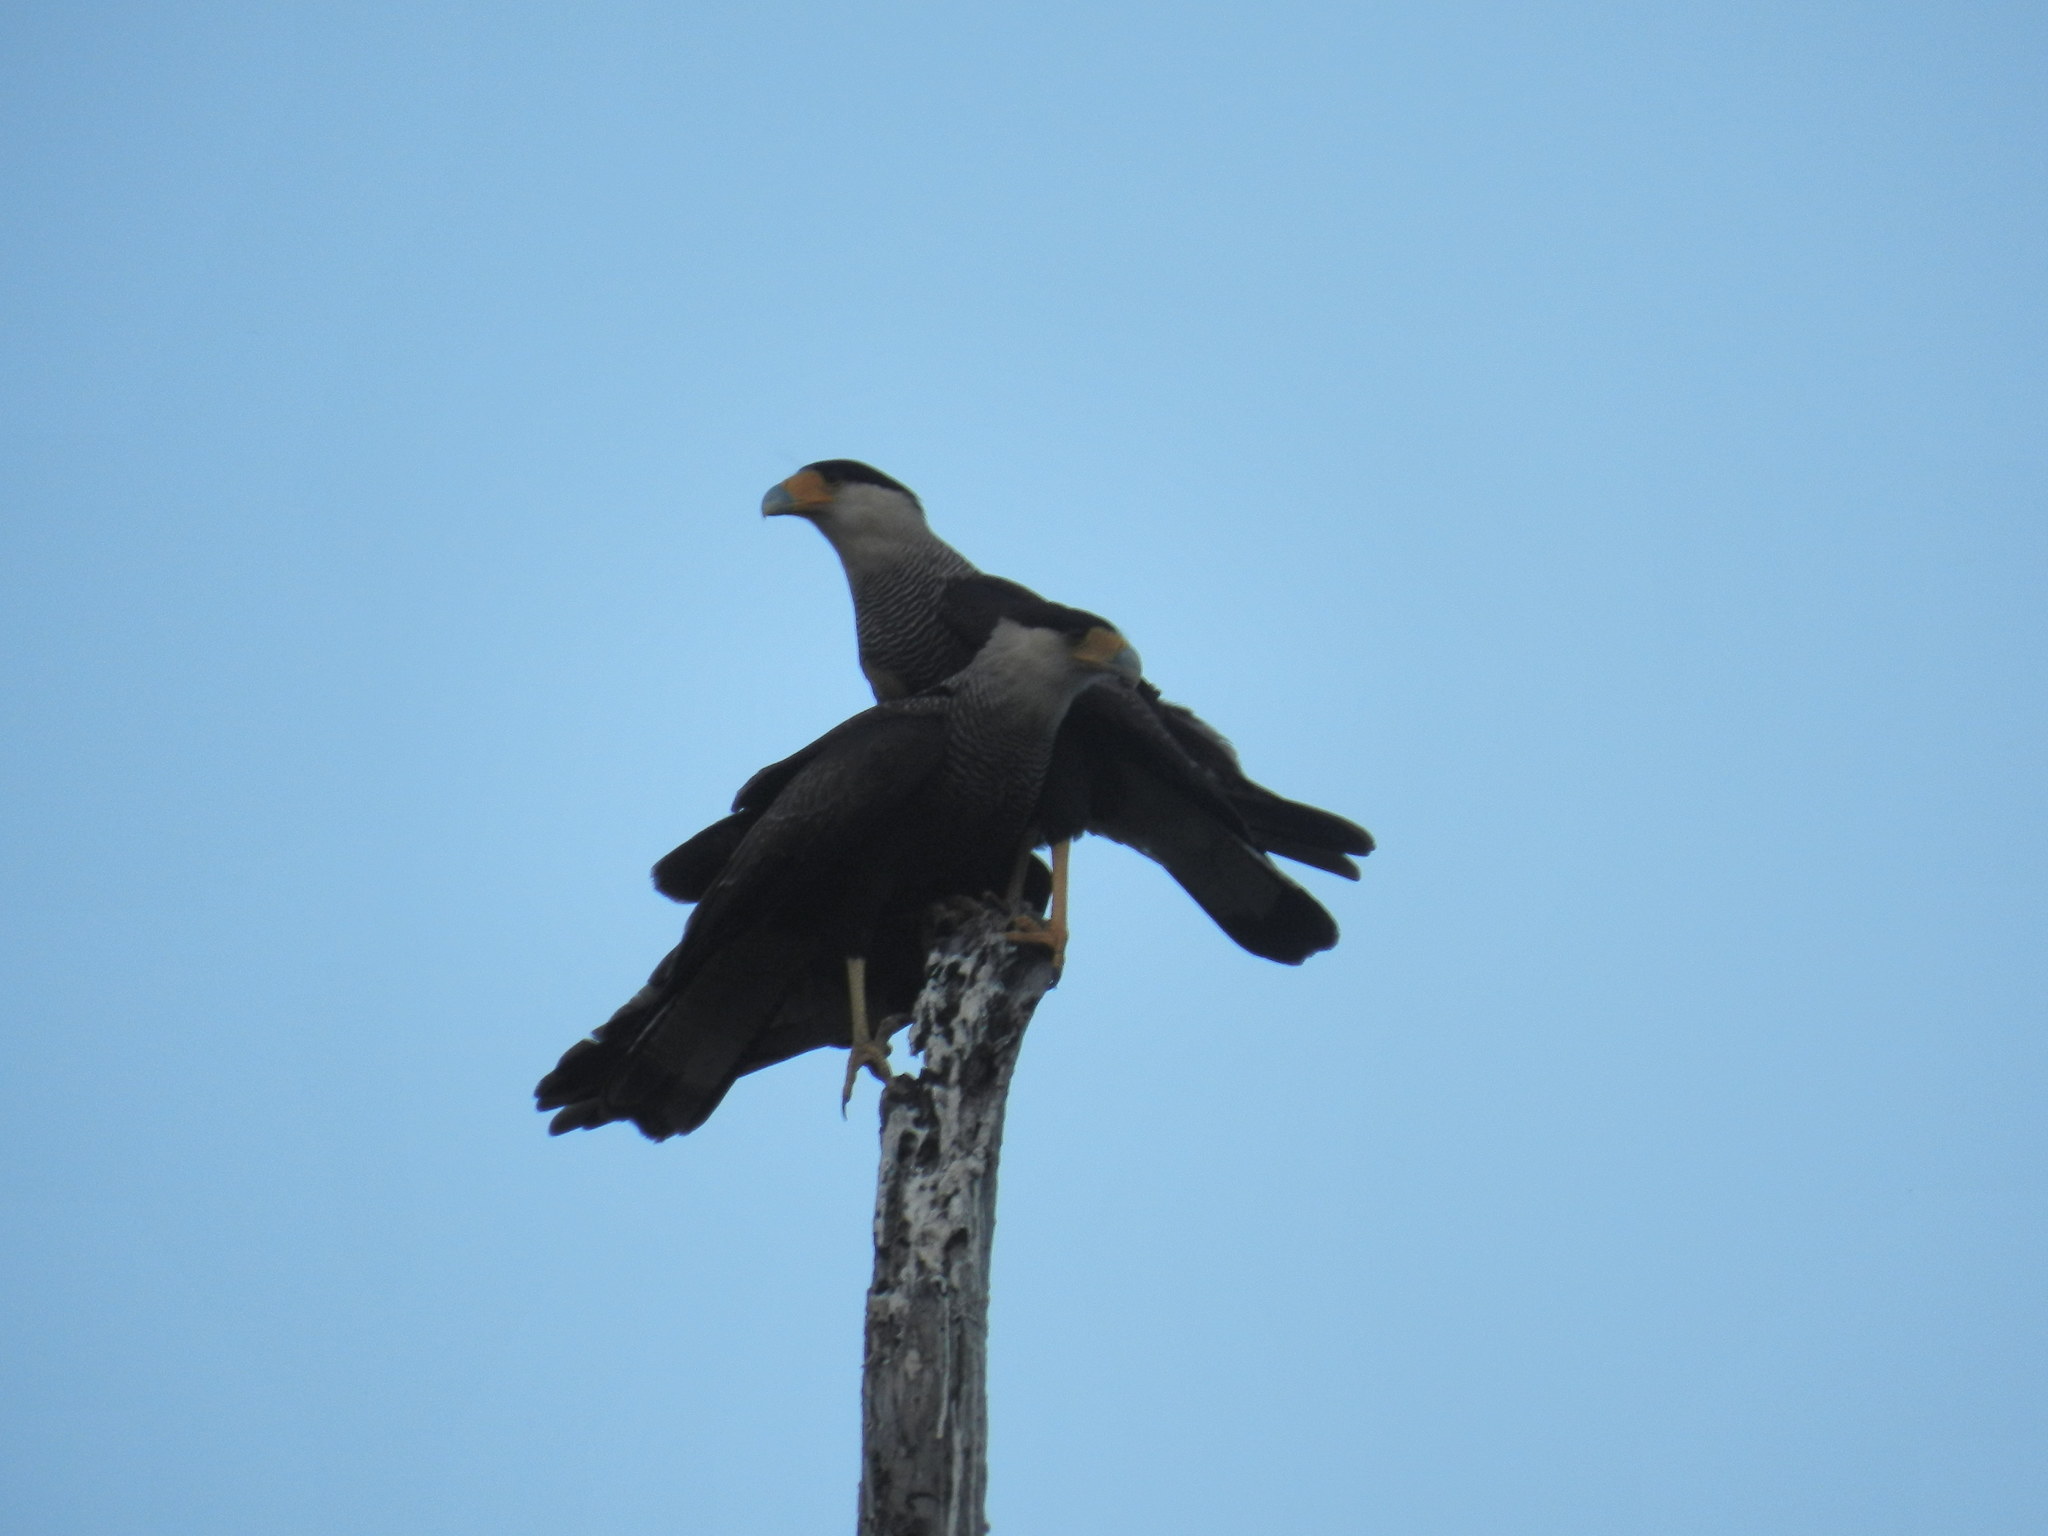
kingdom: Animalia
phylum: Chordata
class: Aves
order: Falconiformes
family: Falconidae
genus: Caracara
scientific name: Caracara plancus
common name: Southern caracara
